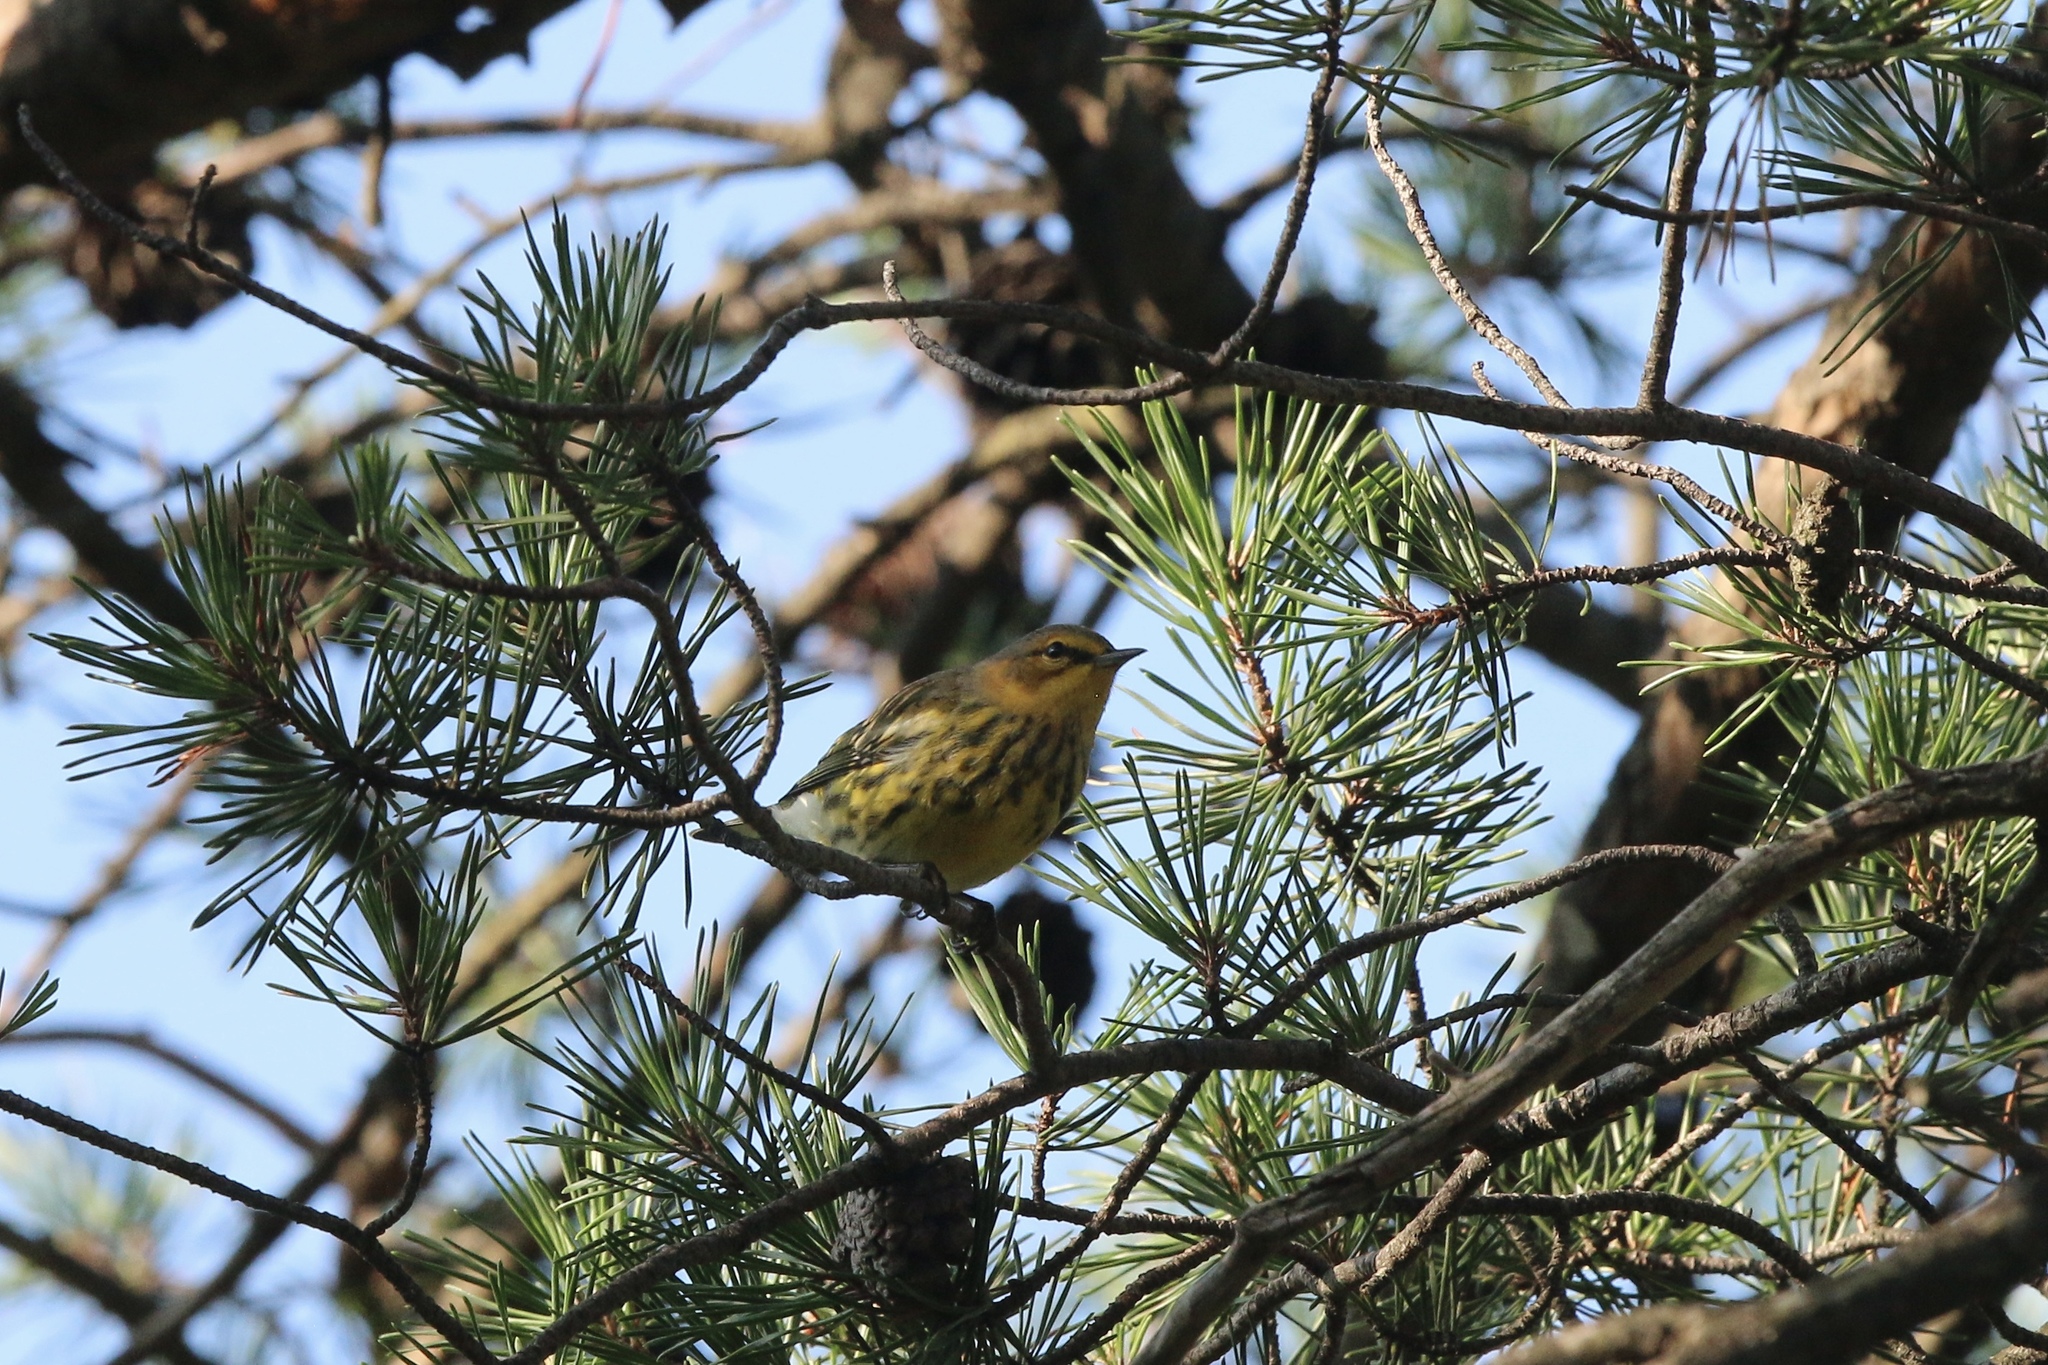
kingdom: Animalia
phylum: Chordata
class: Aves
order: Passeriformes
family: Parulidae
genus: Setophaga
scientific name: Setophaga tigrina
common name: Cape may warbler
